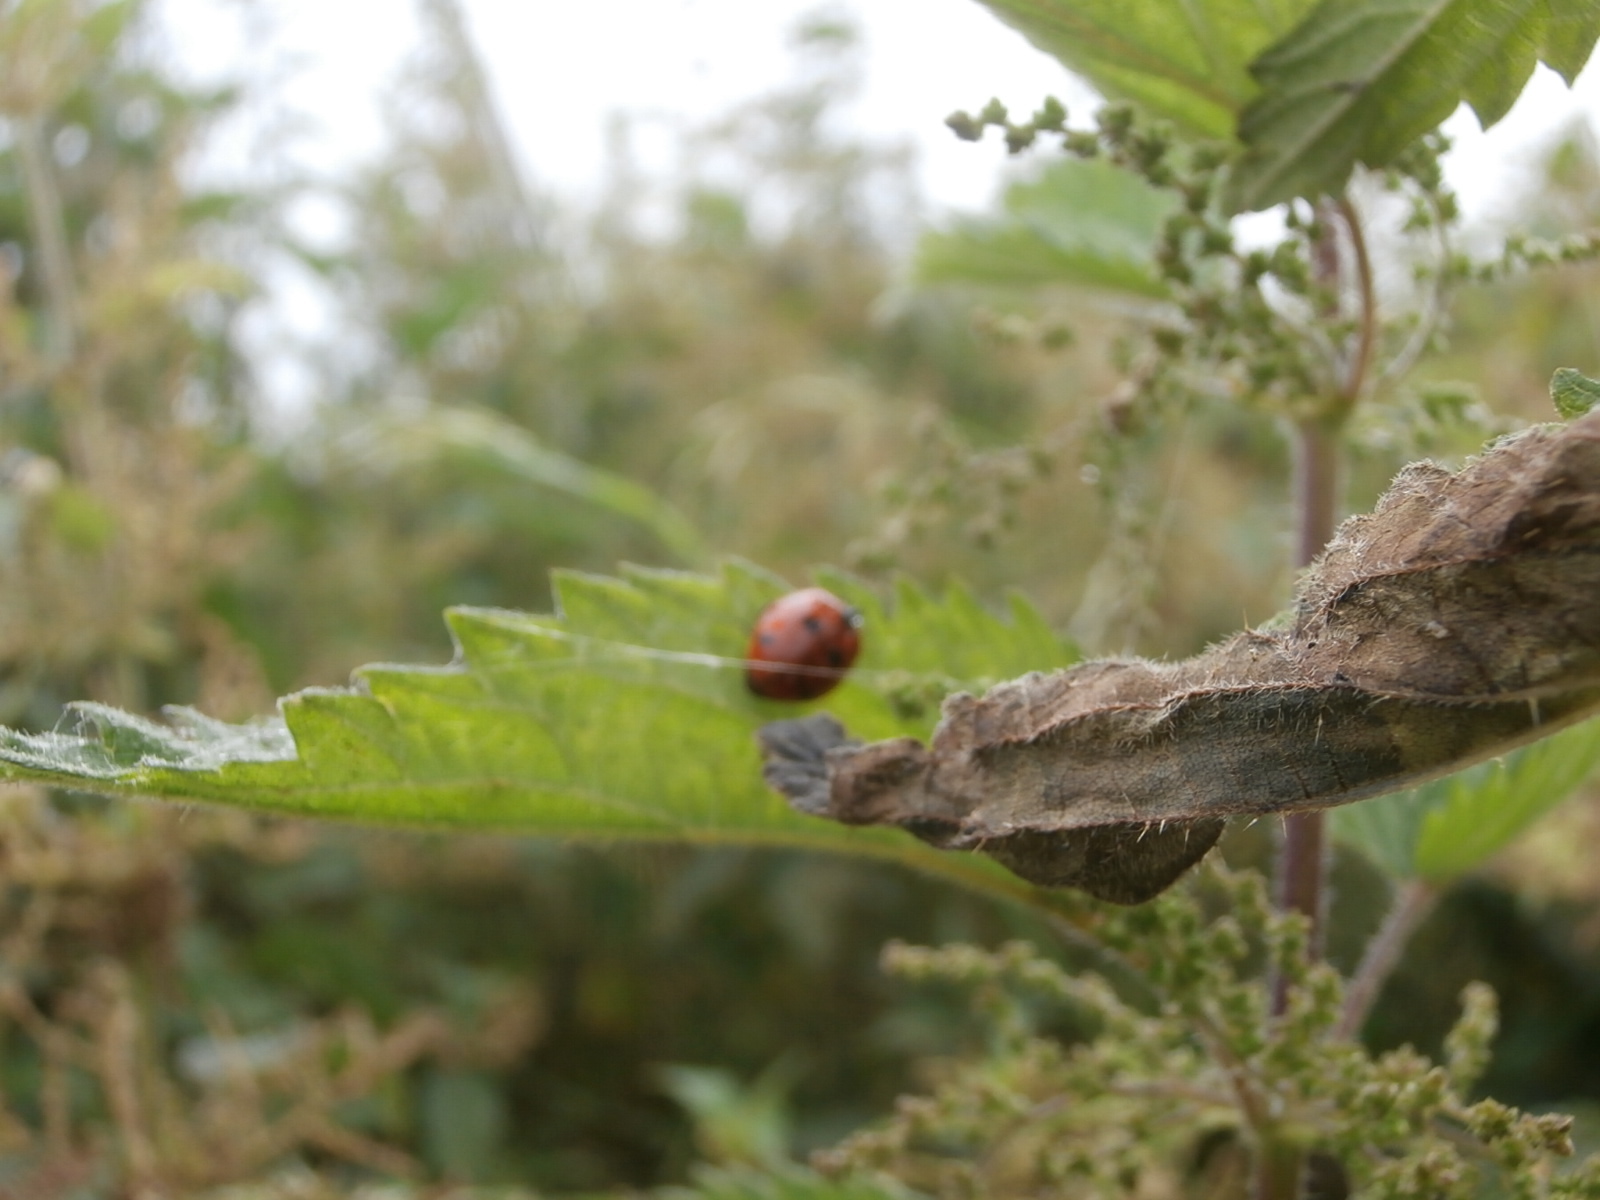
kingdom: Animalia
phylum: Arthropoda
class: Insecta
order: Coleoptera
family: Coccinellidae
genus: Coccinella
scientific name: Coccinella septempunctata
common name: Sevenspotted lady beetle
